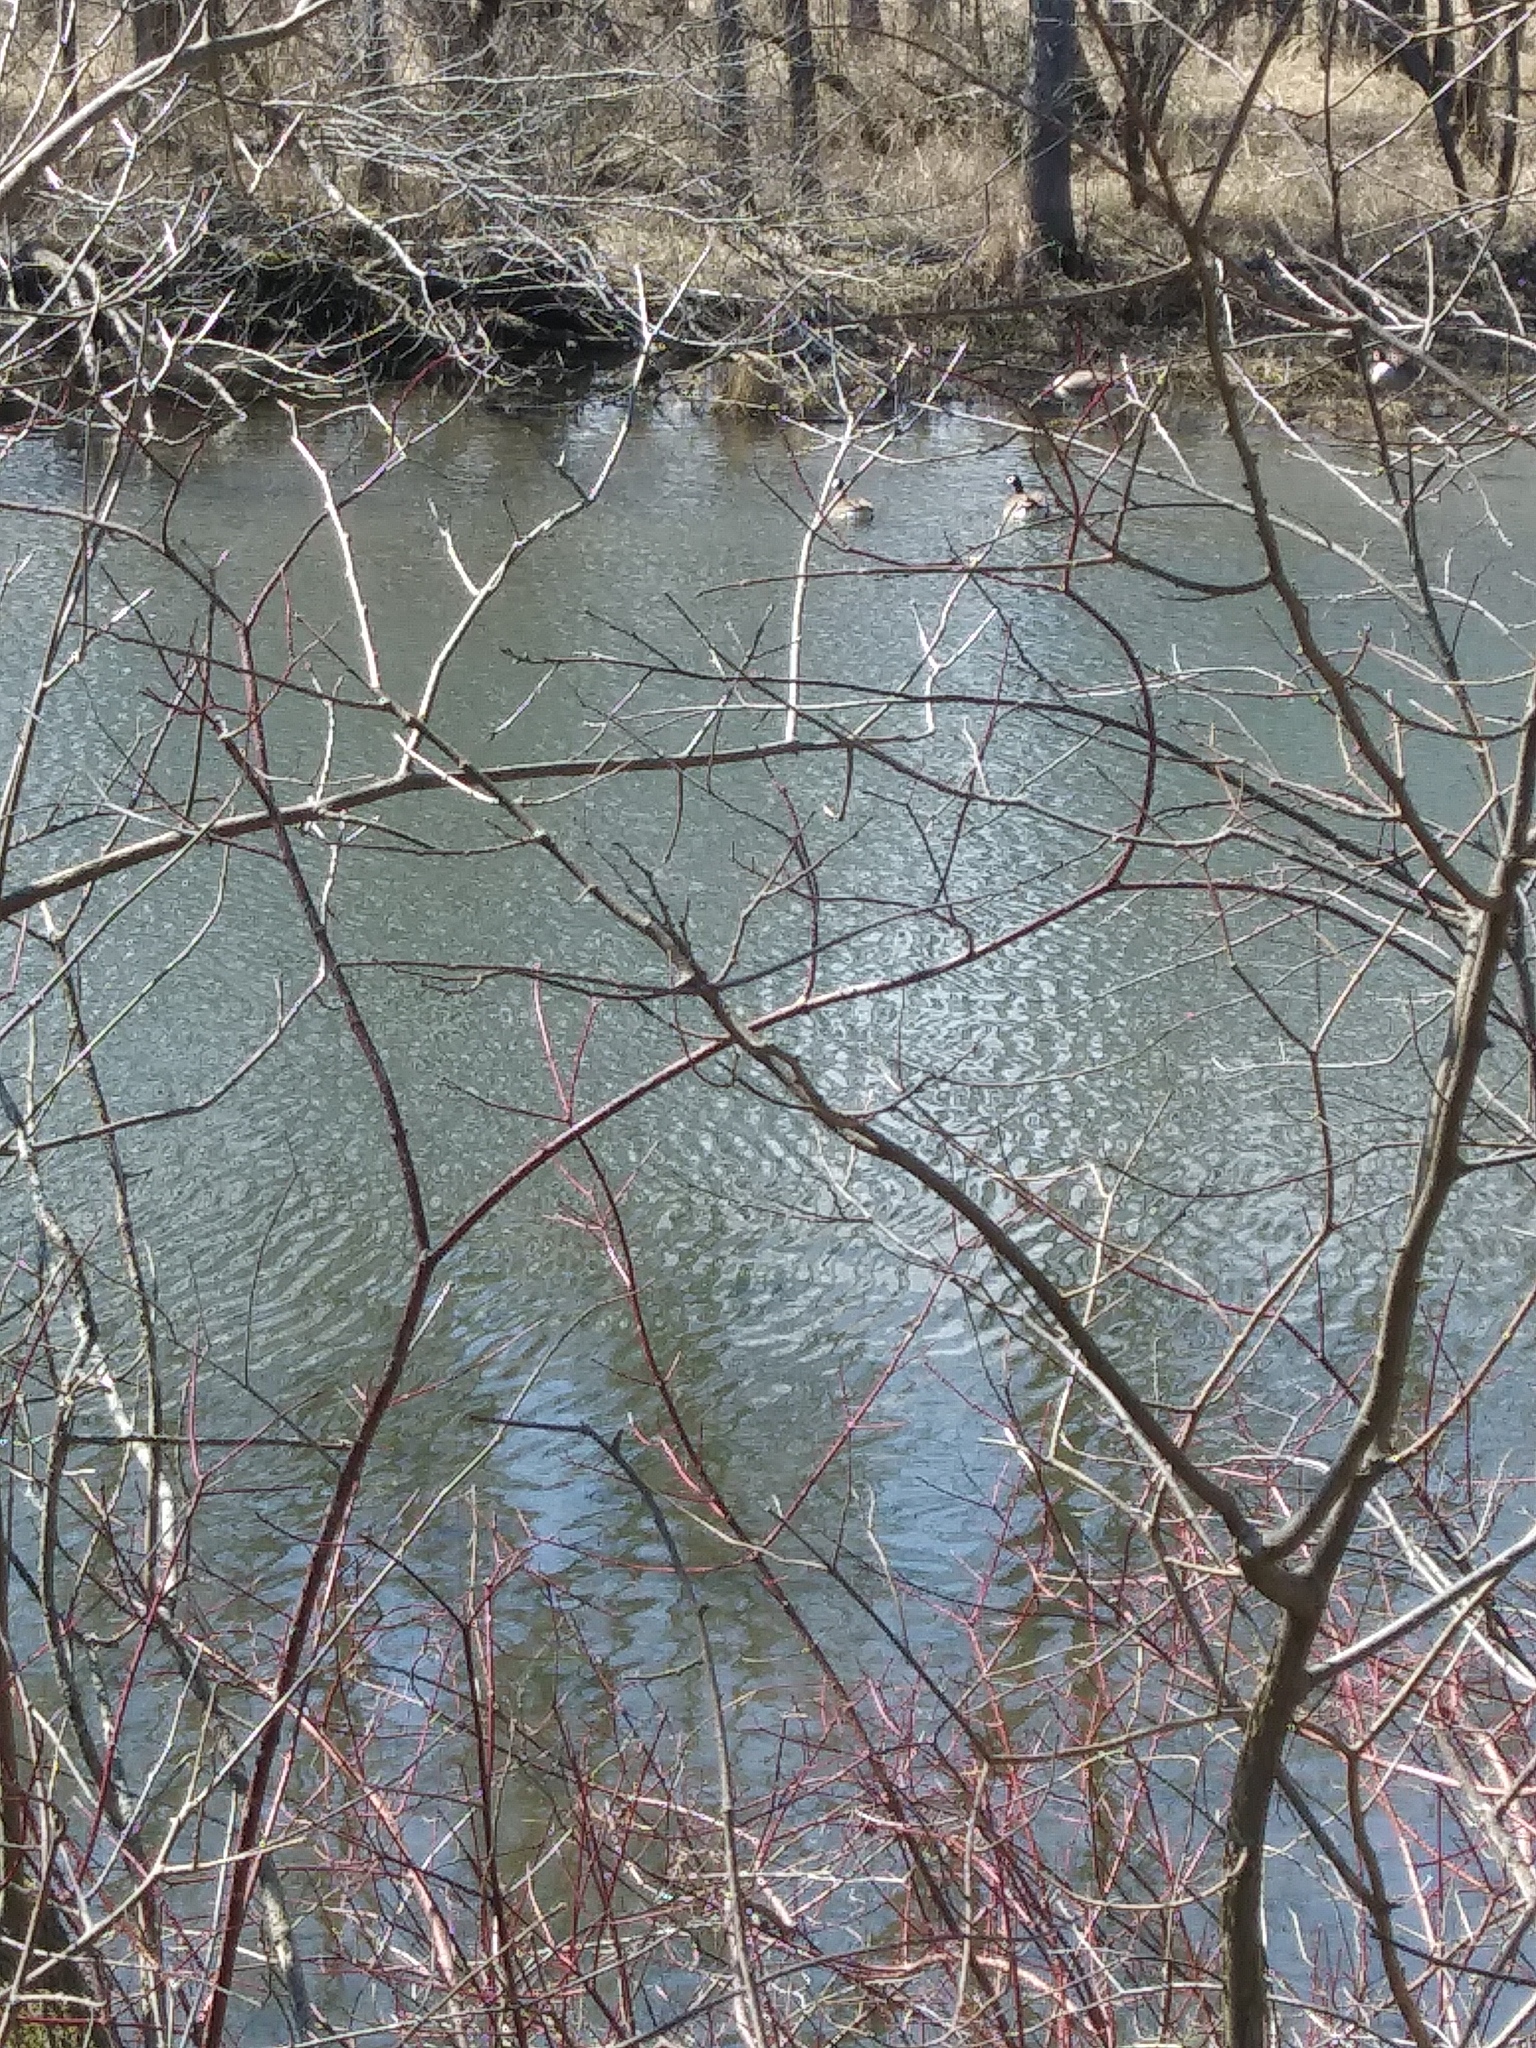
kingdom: Animalia
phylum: Chordata
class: Aves
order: Anseriformes
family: Anatidae
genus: Branta
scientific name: Branta canadensis
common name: Canada goose
